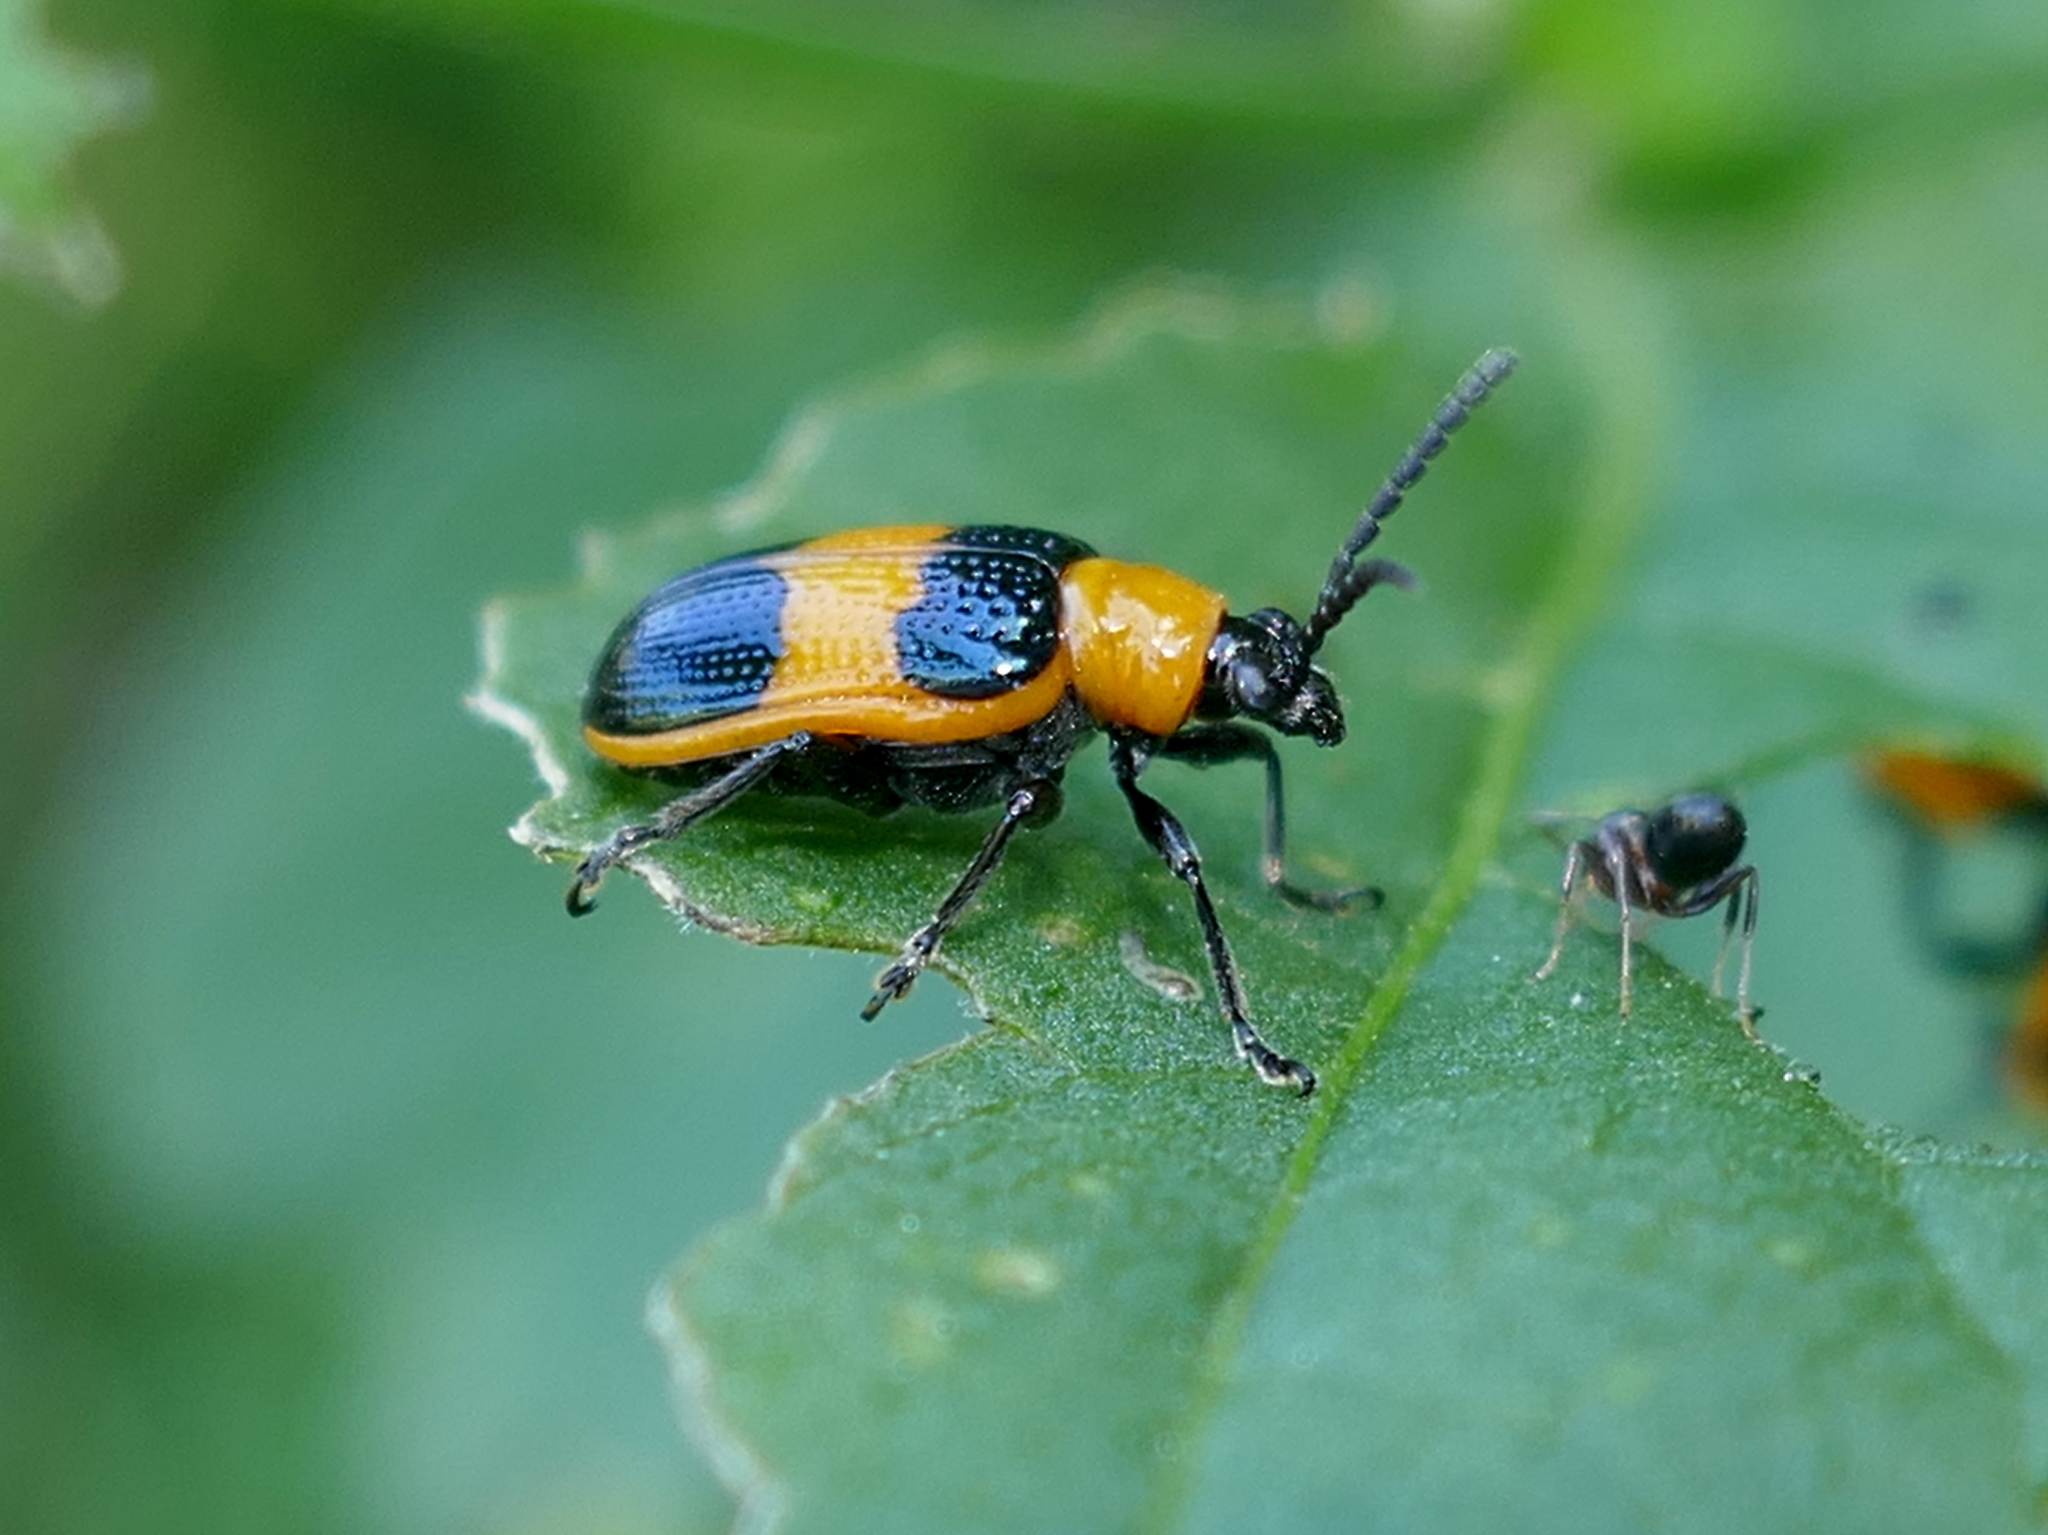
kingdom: Animalia
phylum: Arthropoda
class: Insecta
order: Coleoptera
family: Chrysomelidae
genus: Lema
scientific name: Lema solani
